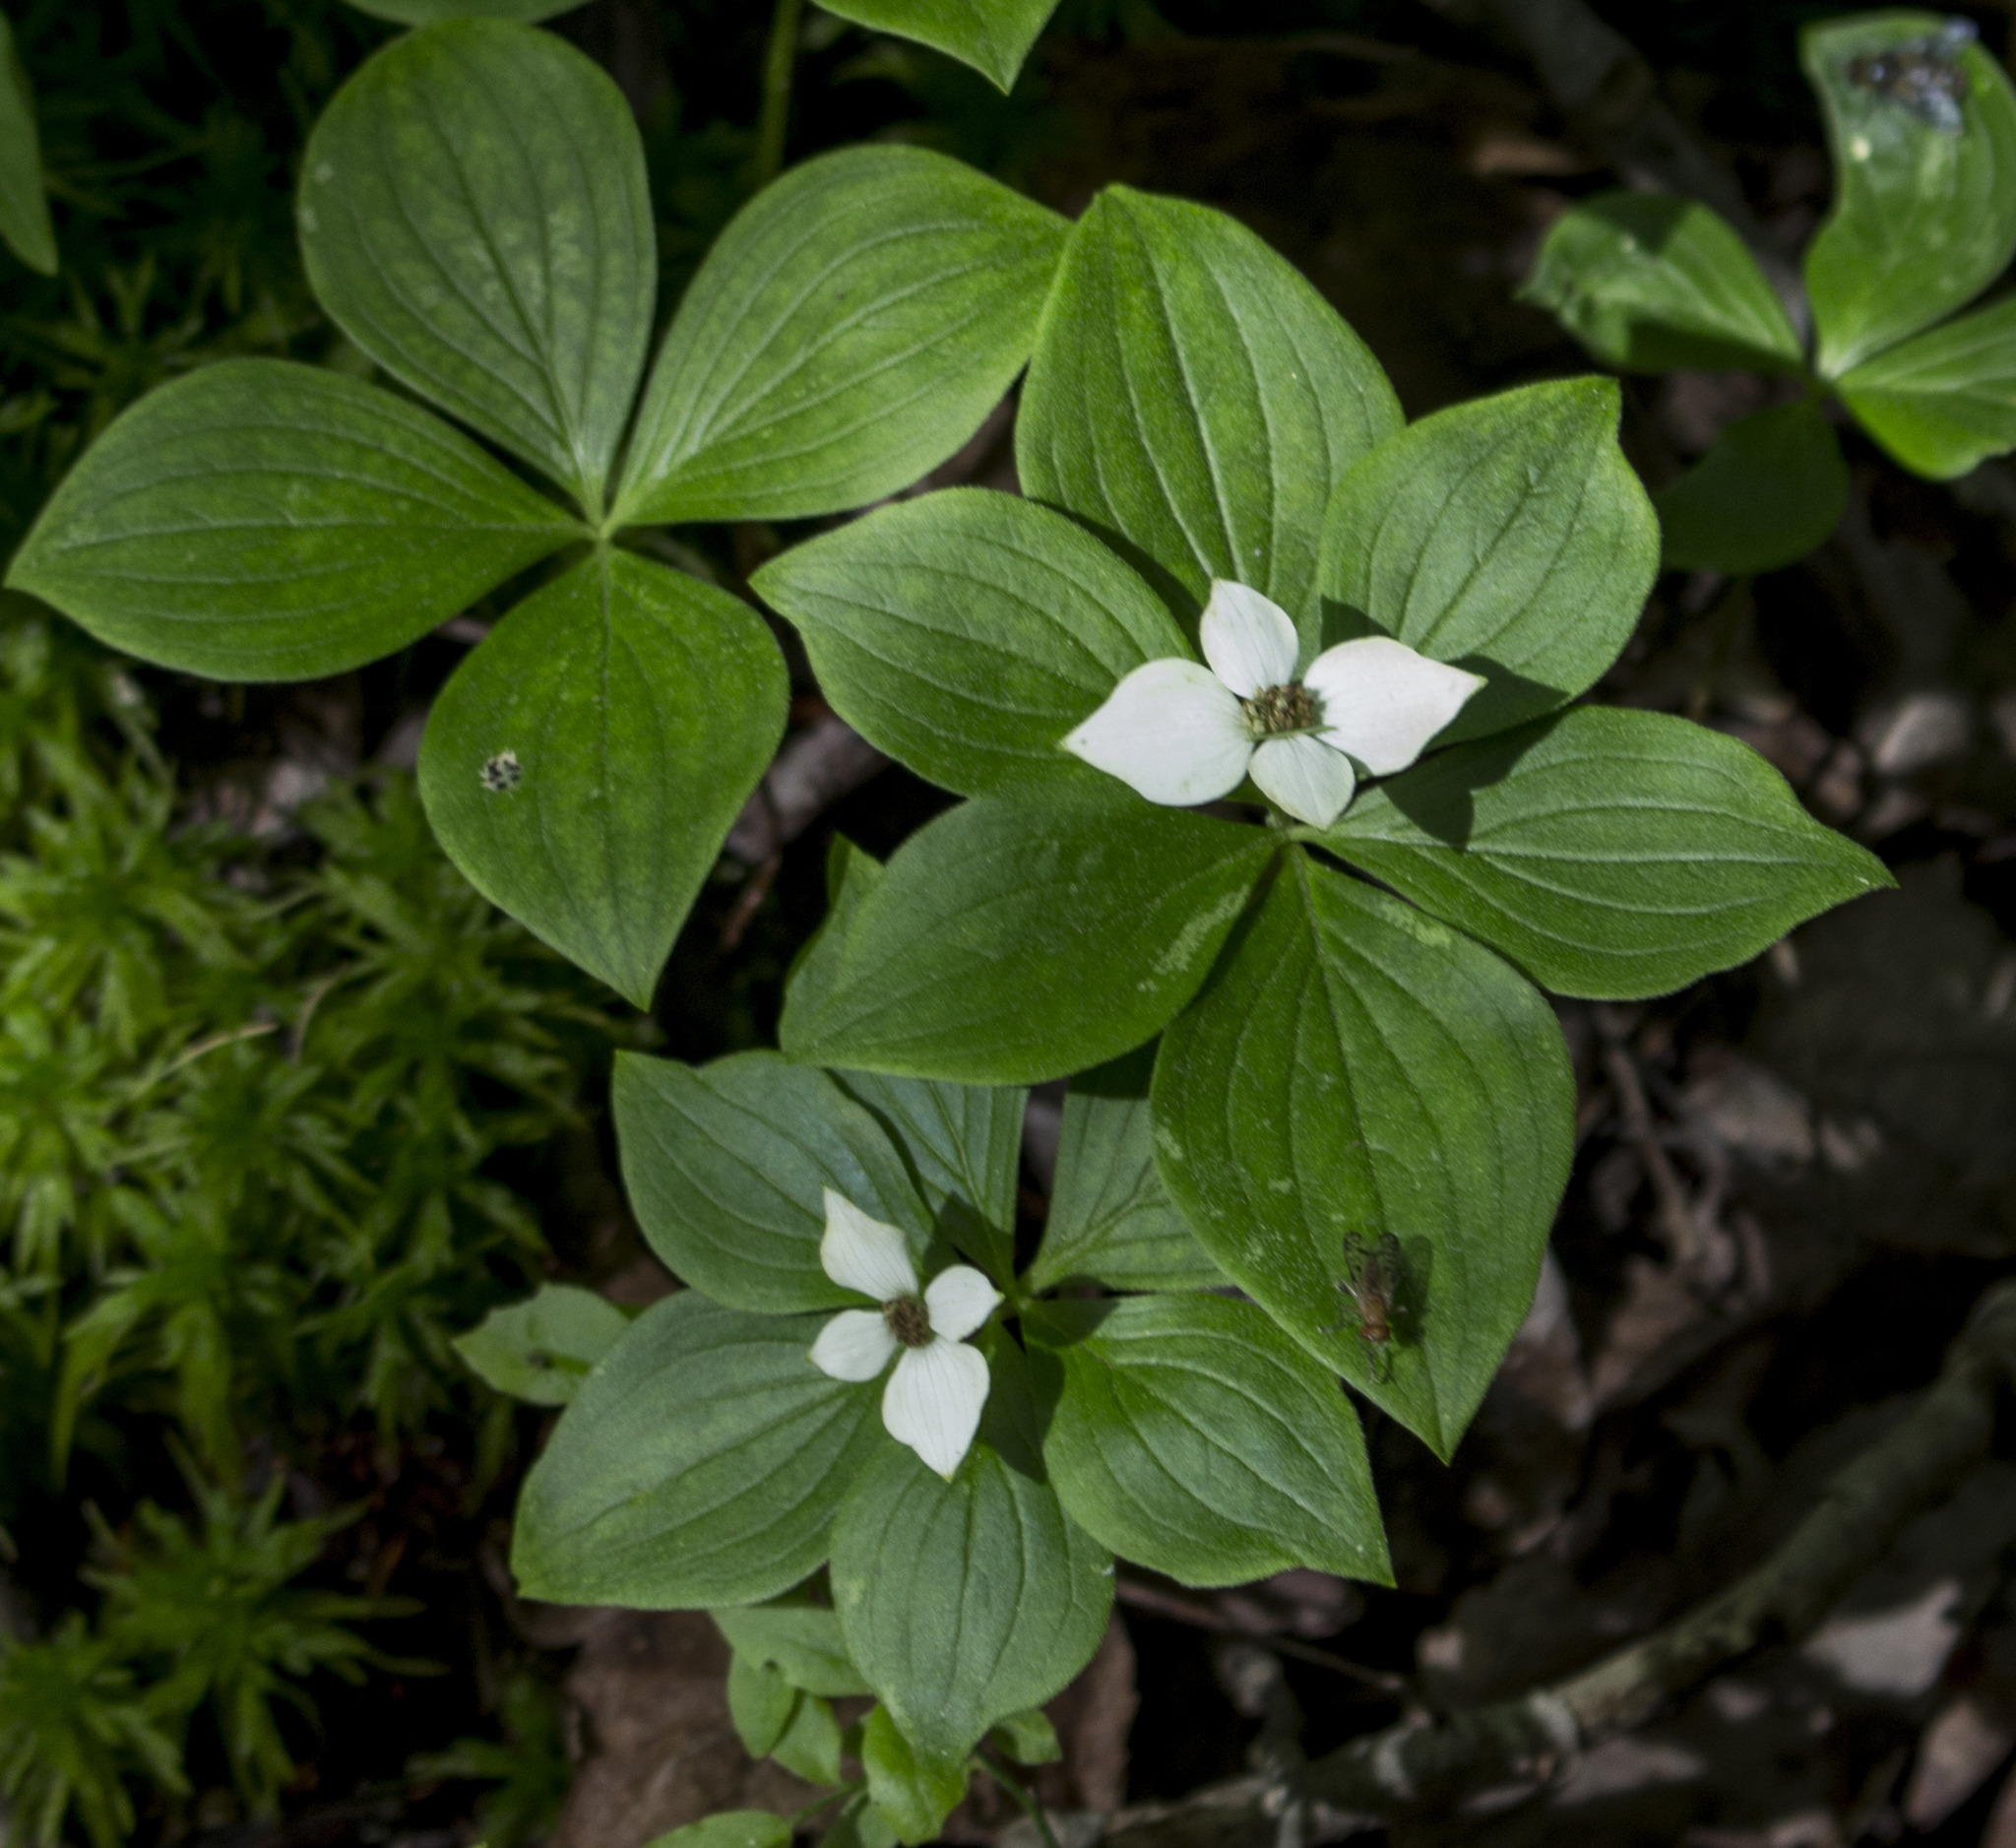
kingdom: Plantae
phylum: Tracheophyta
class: Magnoliopsida
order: Cornales
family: Cornaceae
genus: Cornus
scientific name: Cornus canadensis
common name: Creeping dogwood
